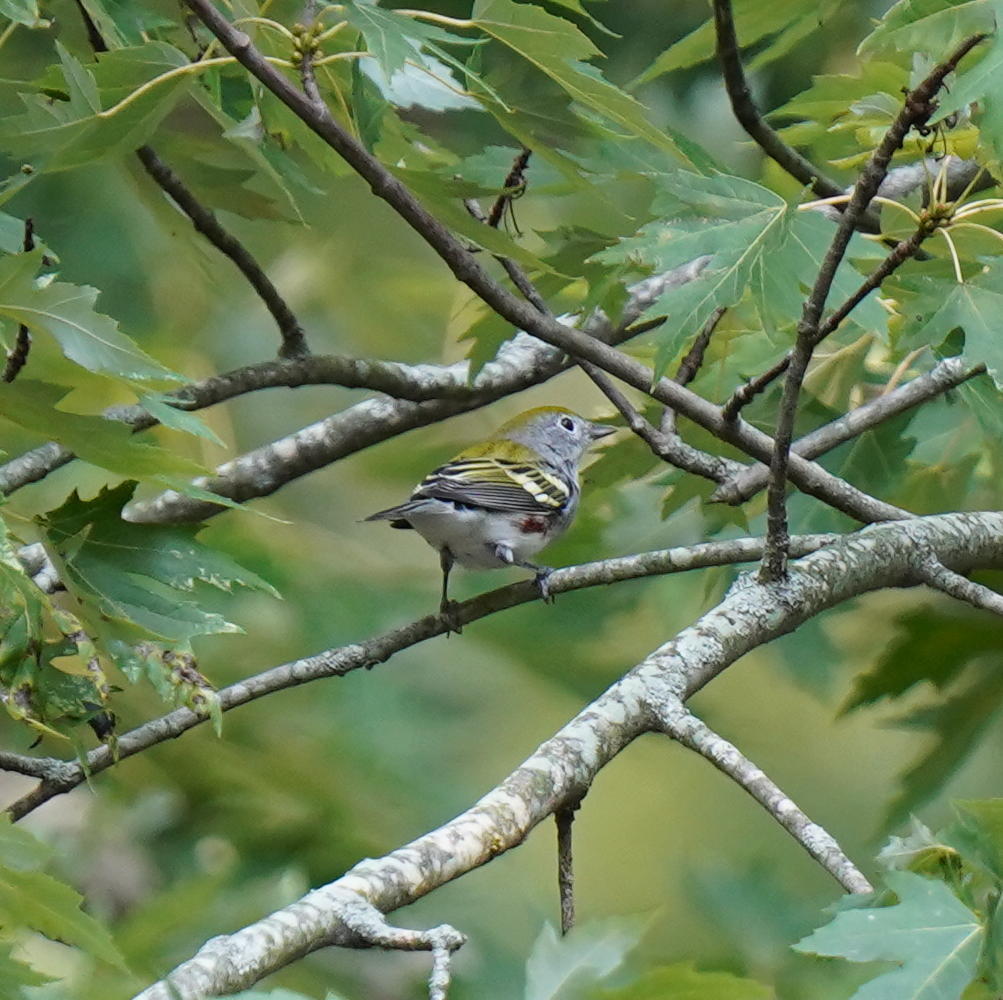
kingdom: Animalia
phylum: Chordata
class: Aves
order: Passeriformes
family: Parulidae
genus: Setophaga
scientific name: Setophaga pensylvanica
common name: Chestnut-sided warbler
